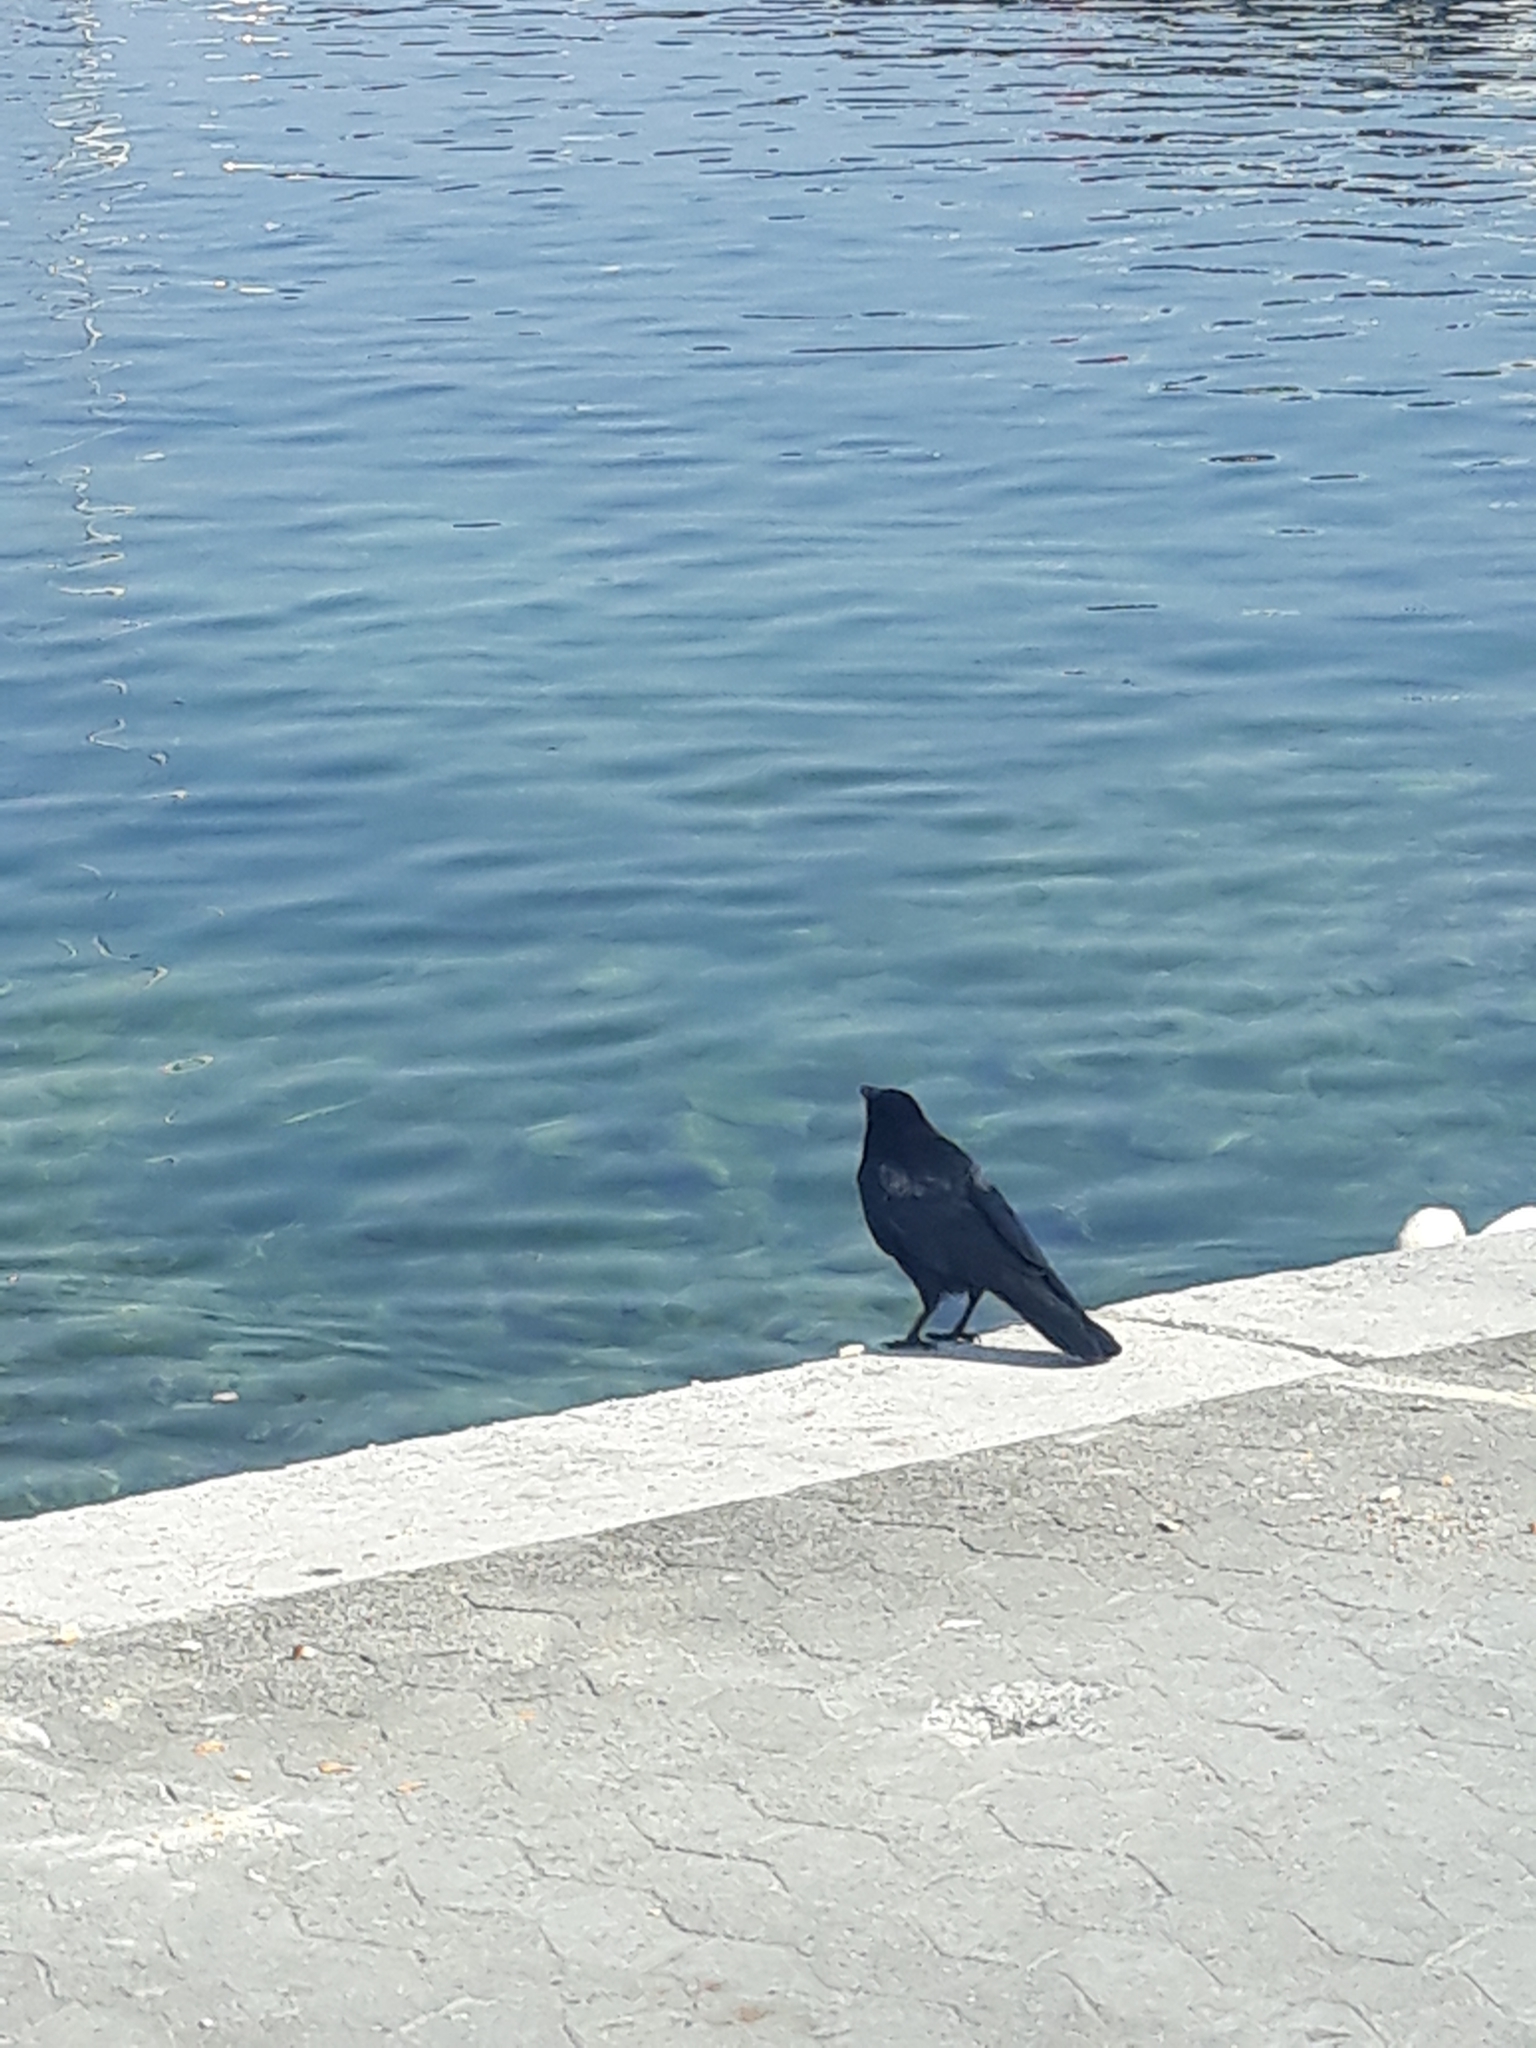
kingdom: Animalia
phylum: Chordata
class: Aves
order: Passeriformes
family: Corvidae
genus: Corvus
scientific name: Corvus corone
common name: Carrion crow
